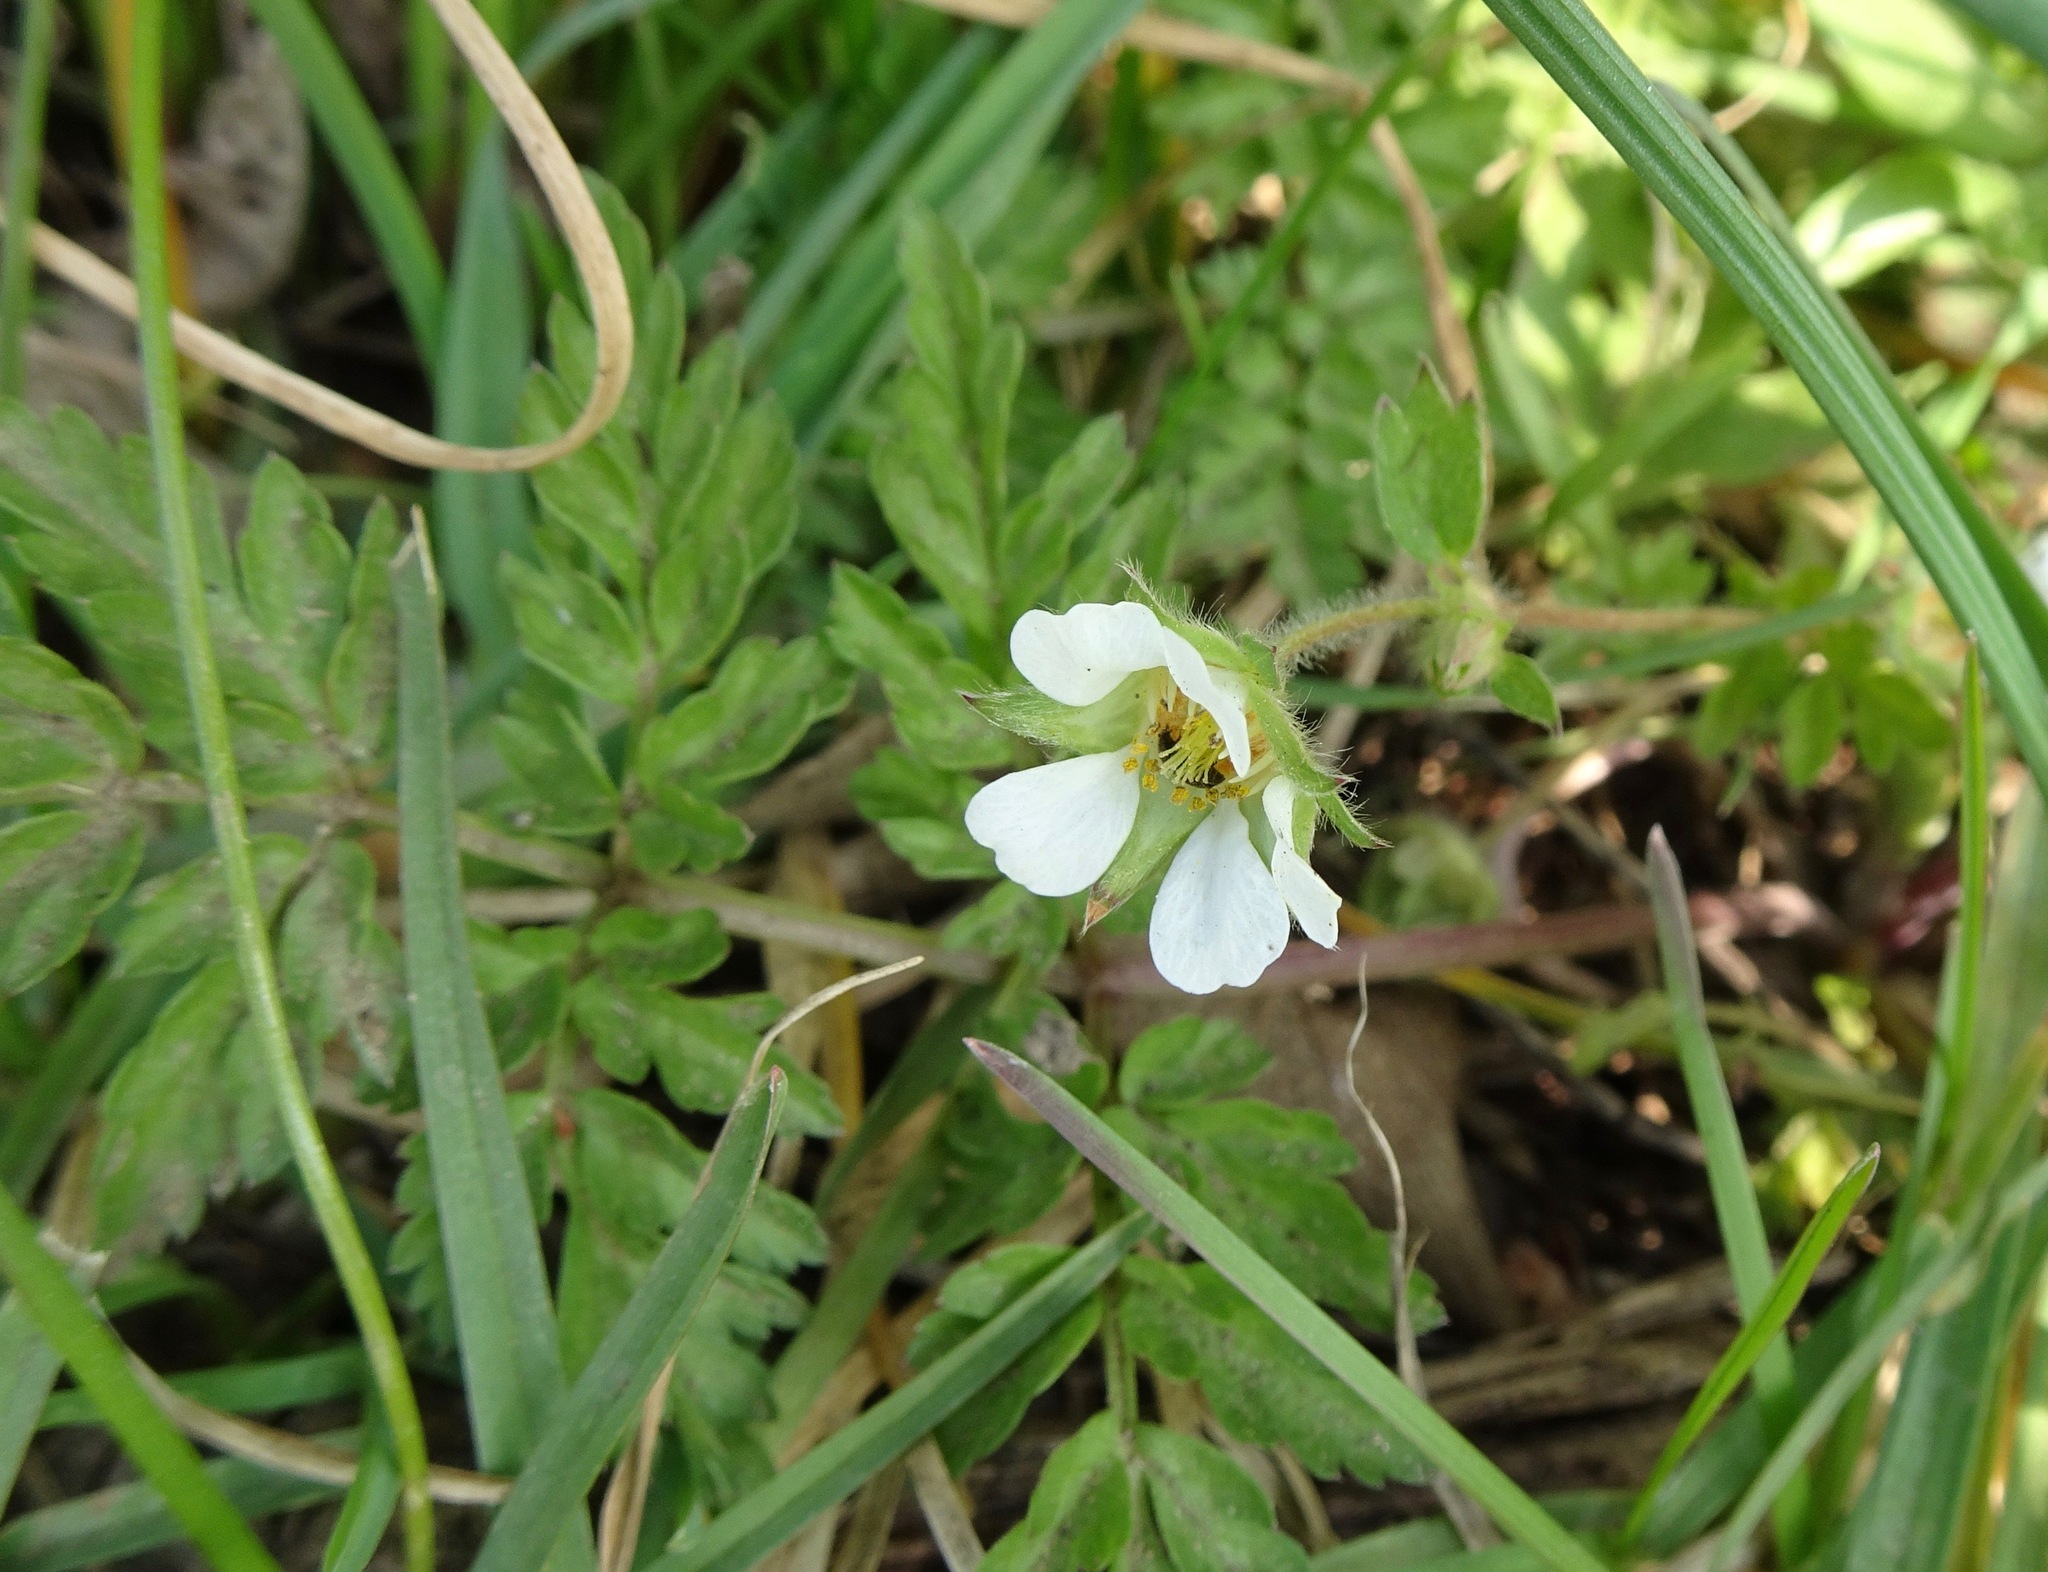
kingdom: Plantae
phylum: Tracheophyta
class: Magnoliopsida
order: Rosales
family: Rosaceae
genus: Potentilla
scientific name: Potentilla sterilis
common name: Barren strawberry
